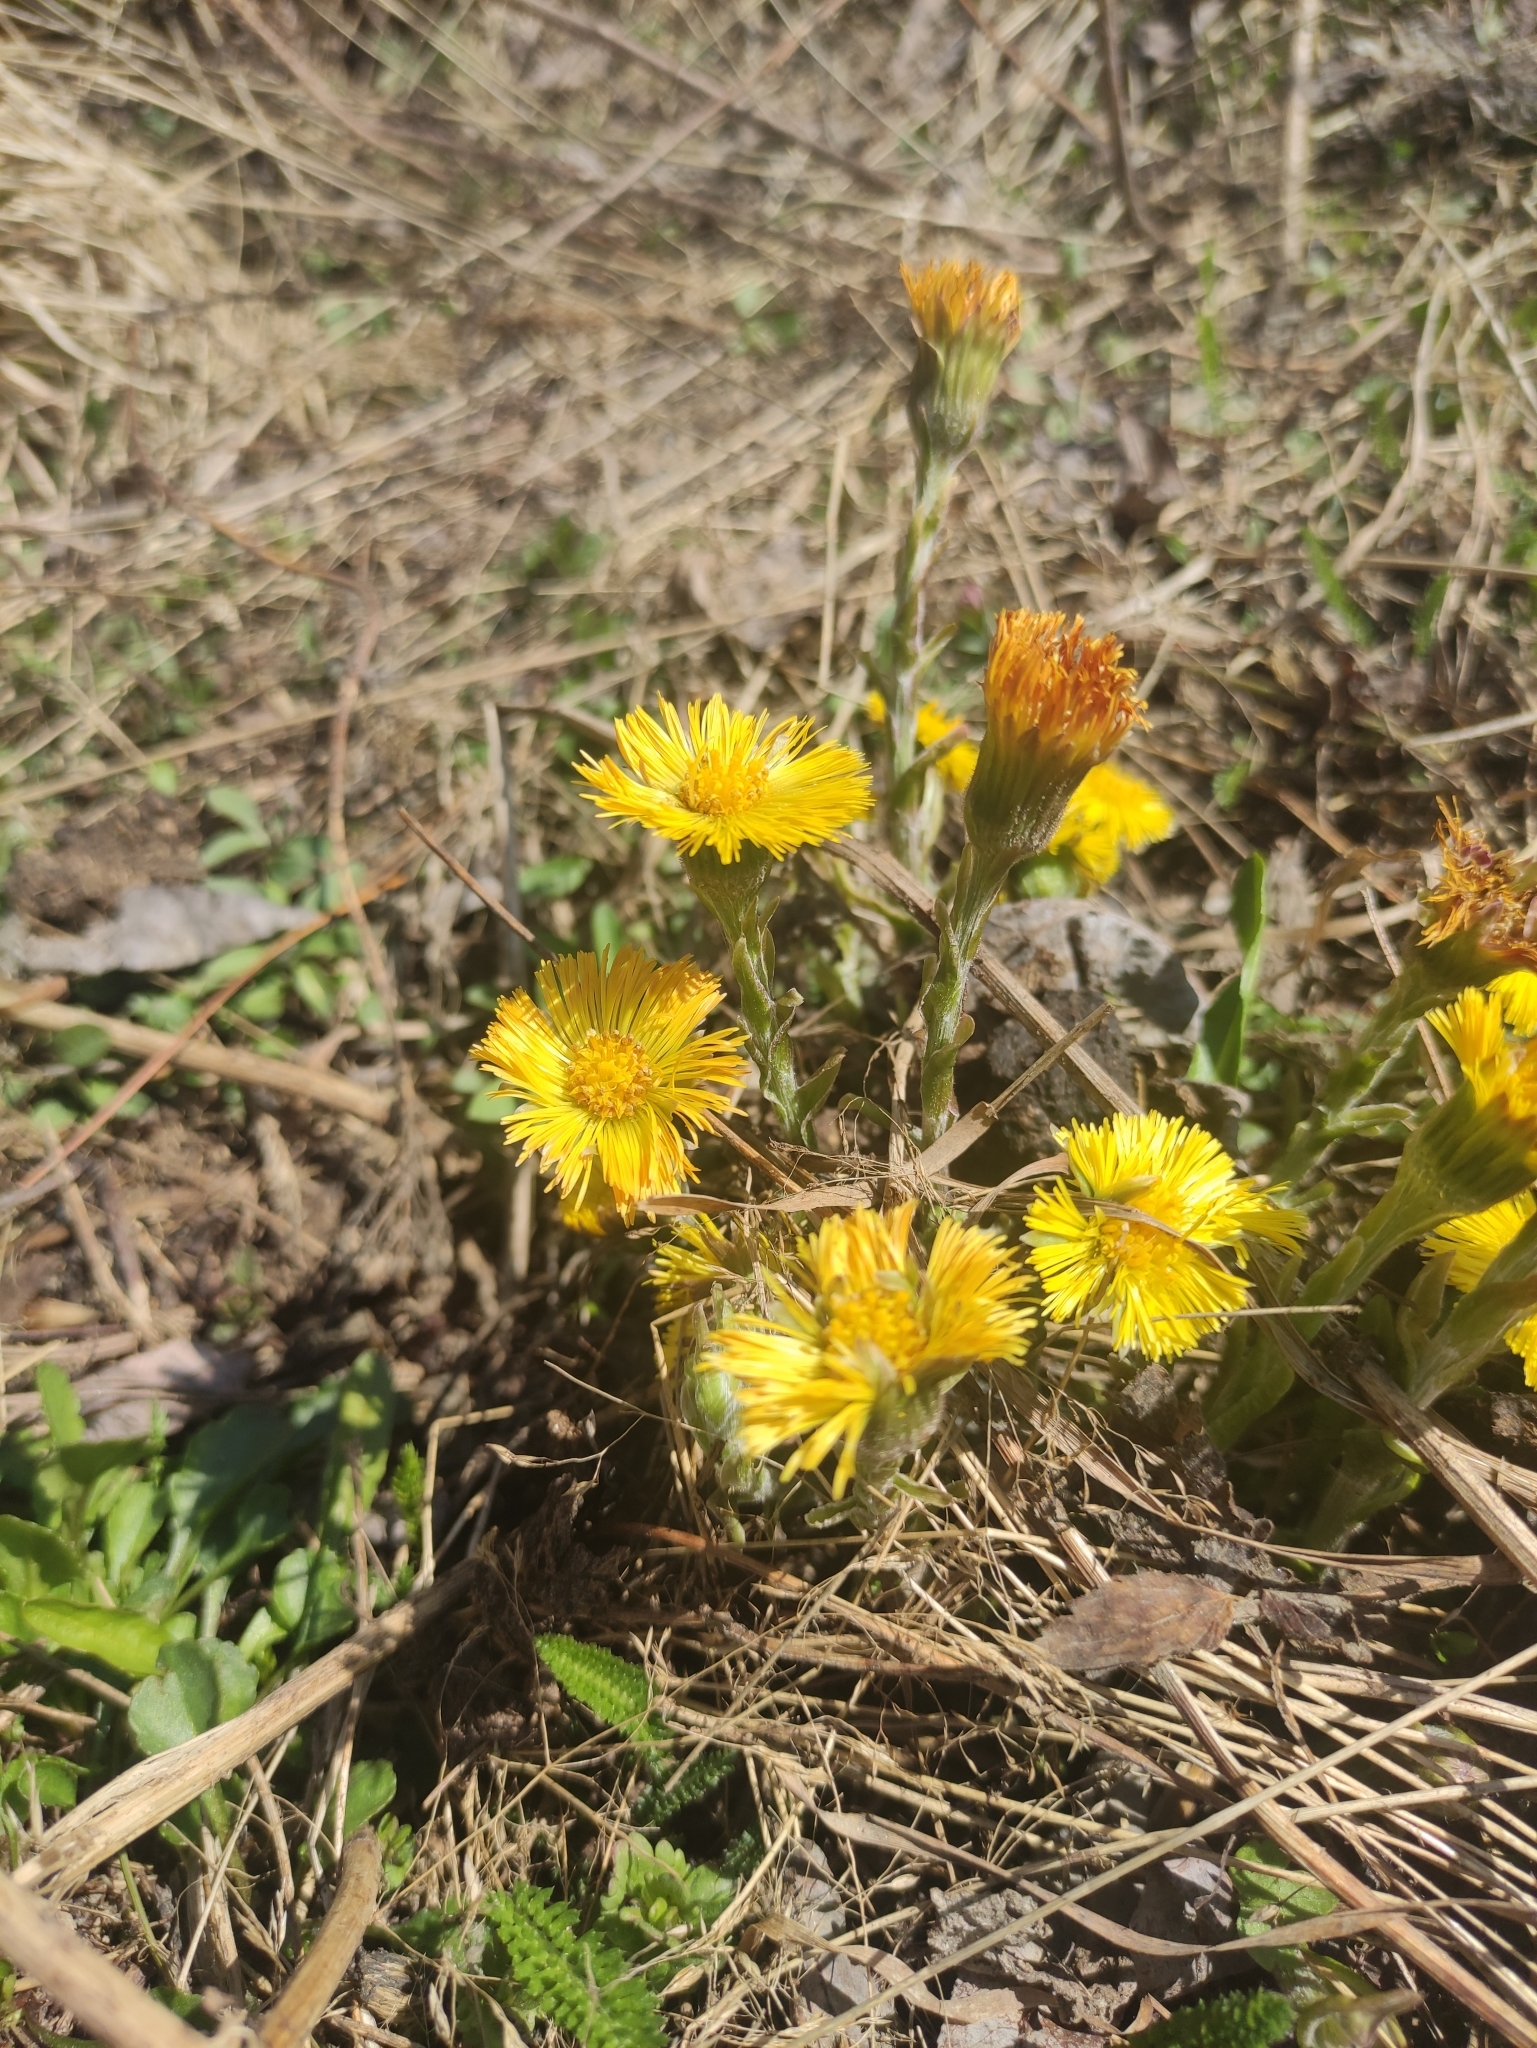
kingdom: Plantae
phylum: Tracheophyta
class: Magnoliopsida
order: Asterales
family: Asteraceae
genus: Tussilago
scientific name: Tussilago farfara
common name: Coltsfoot
